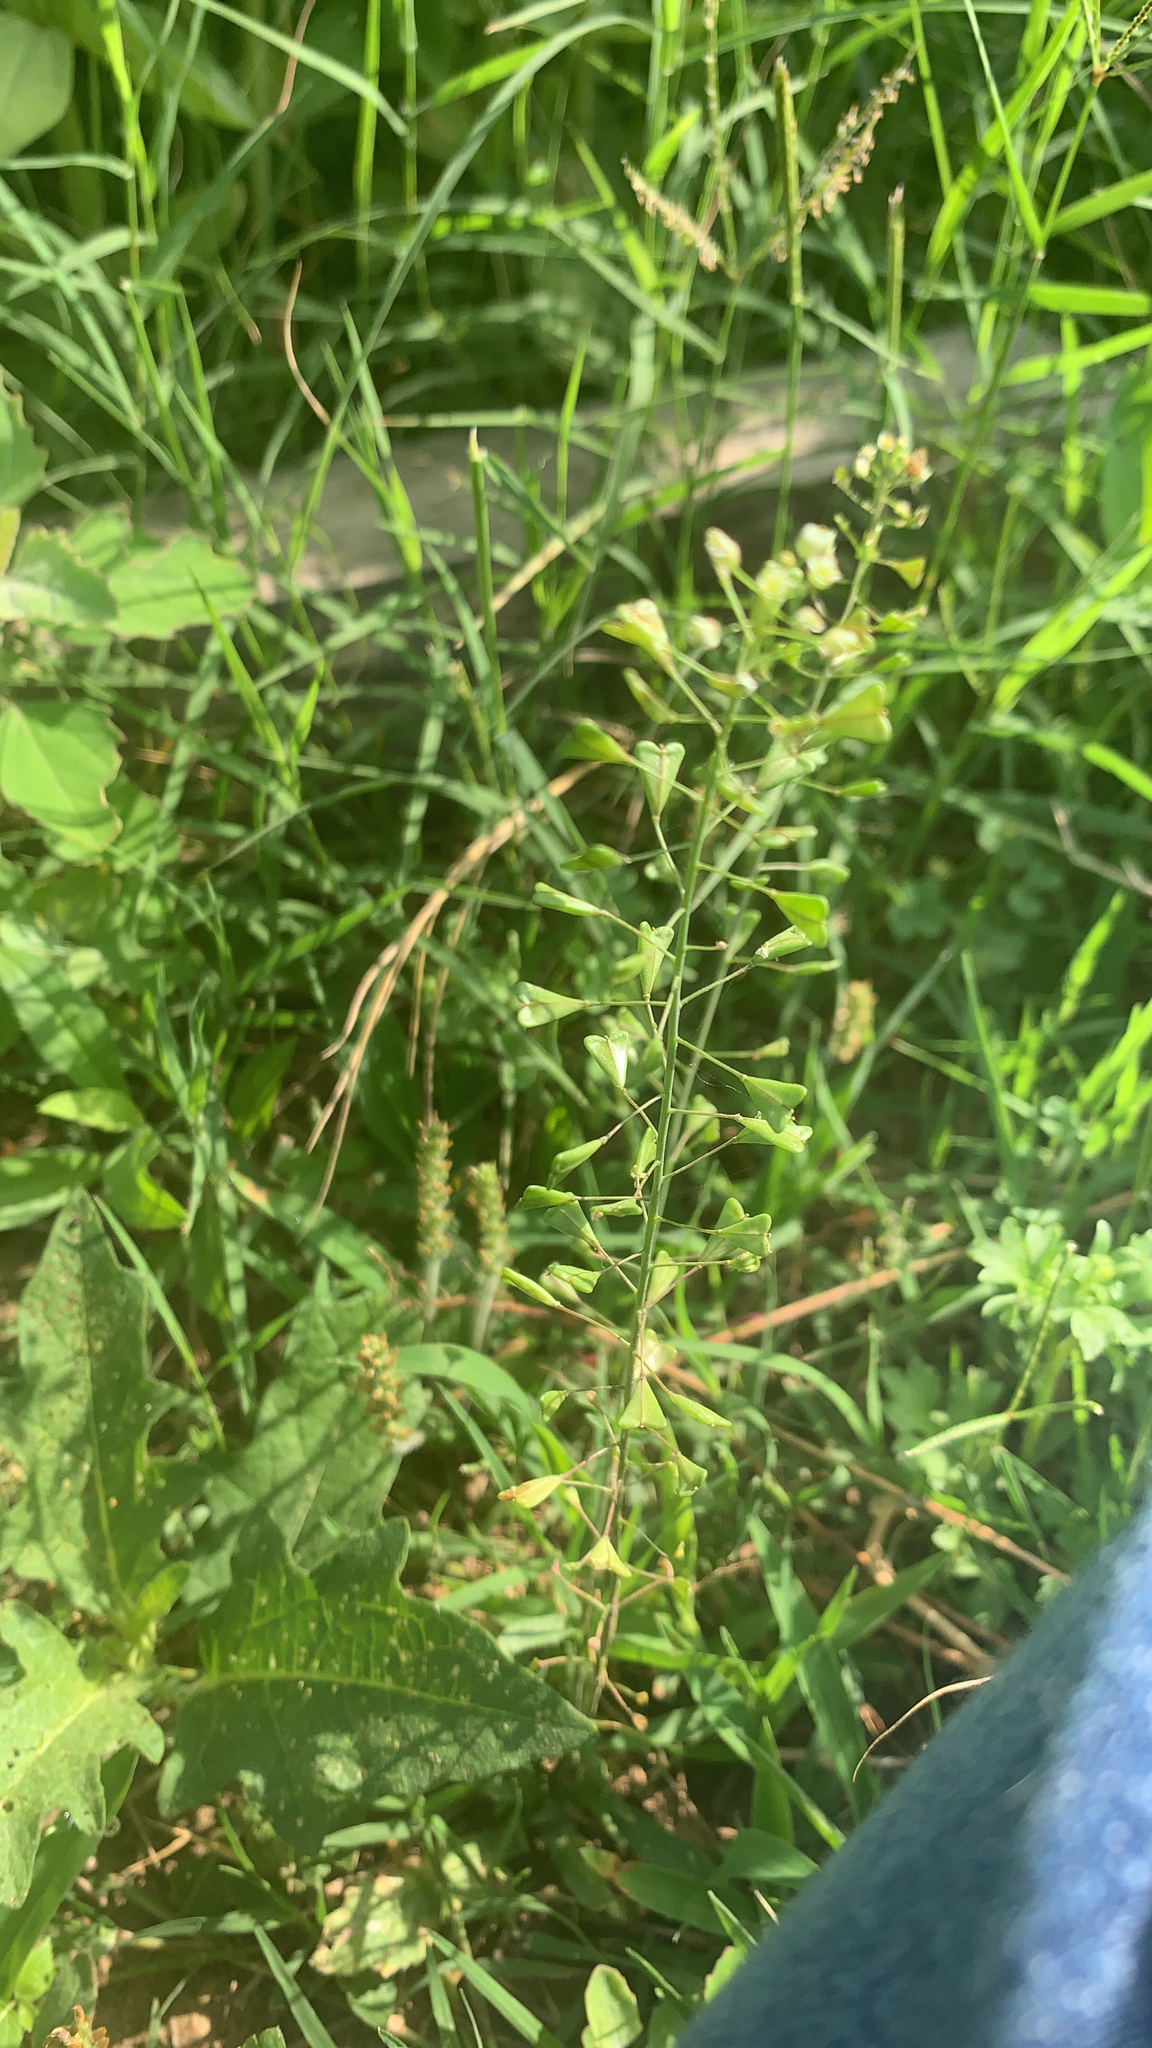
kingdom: Plantae
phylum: Tracheophyta
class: Magnoliopsida
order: Brassicales
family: Brassicaceae
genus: Capsella
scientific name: Capsella bursa-pastoris
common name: Shepherd's purse
